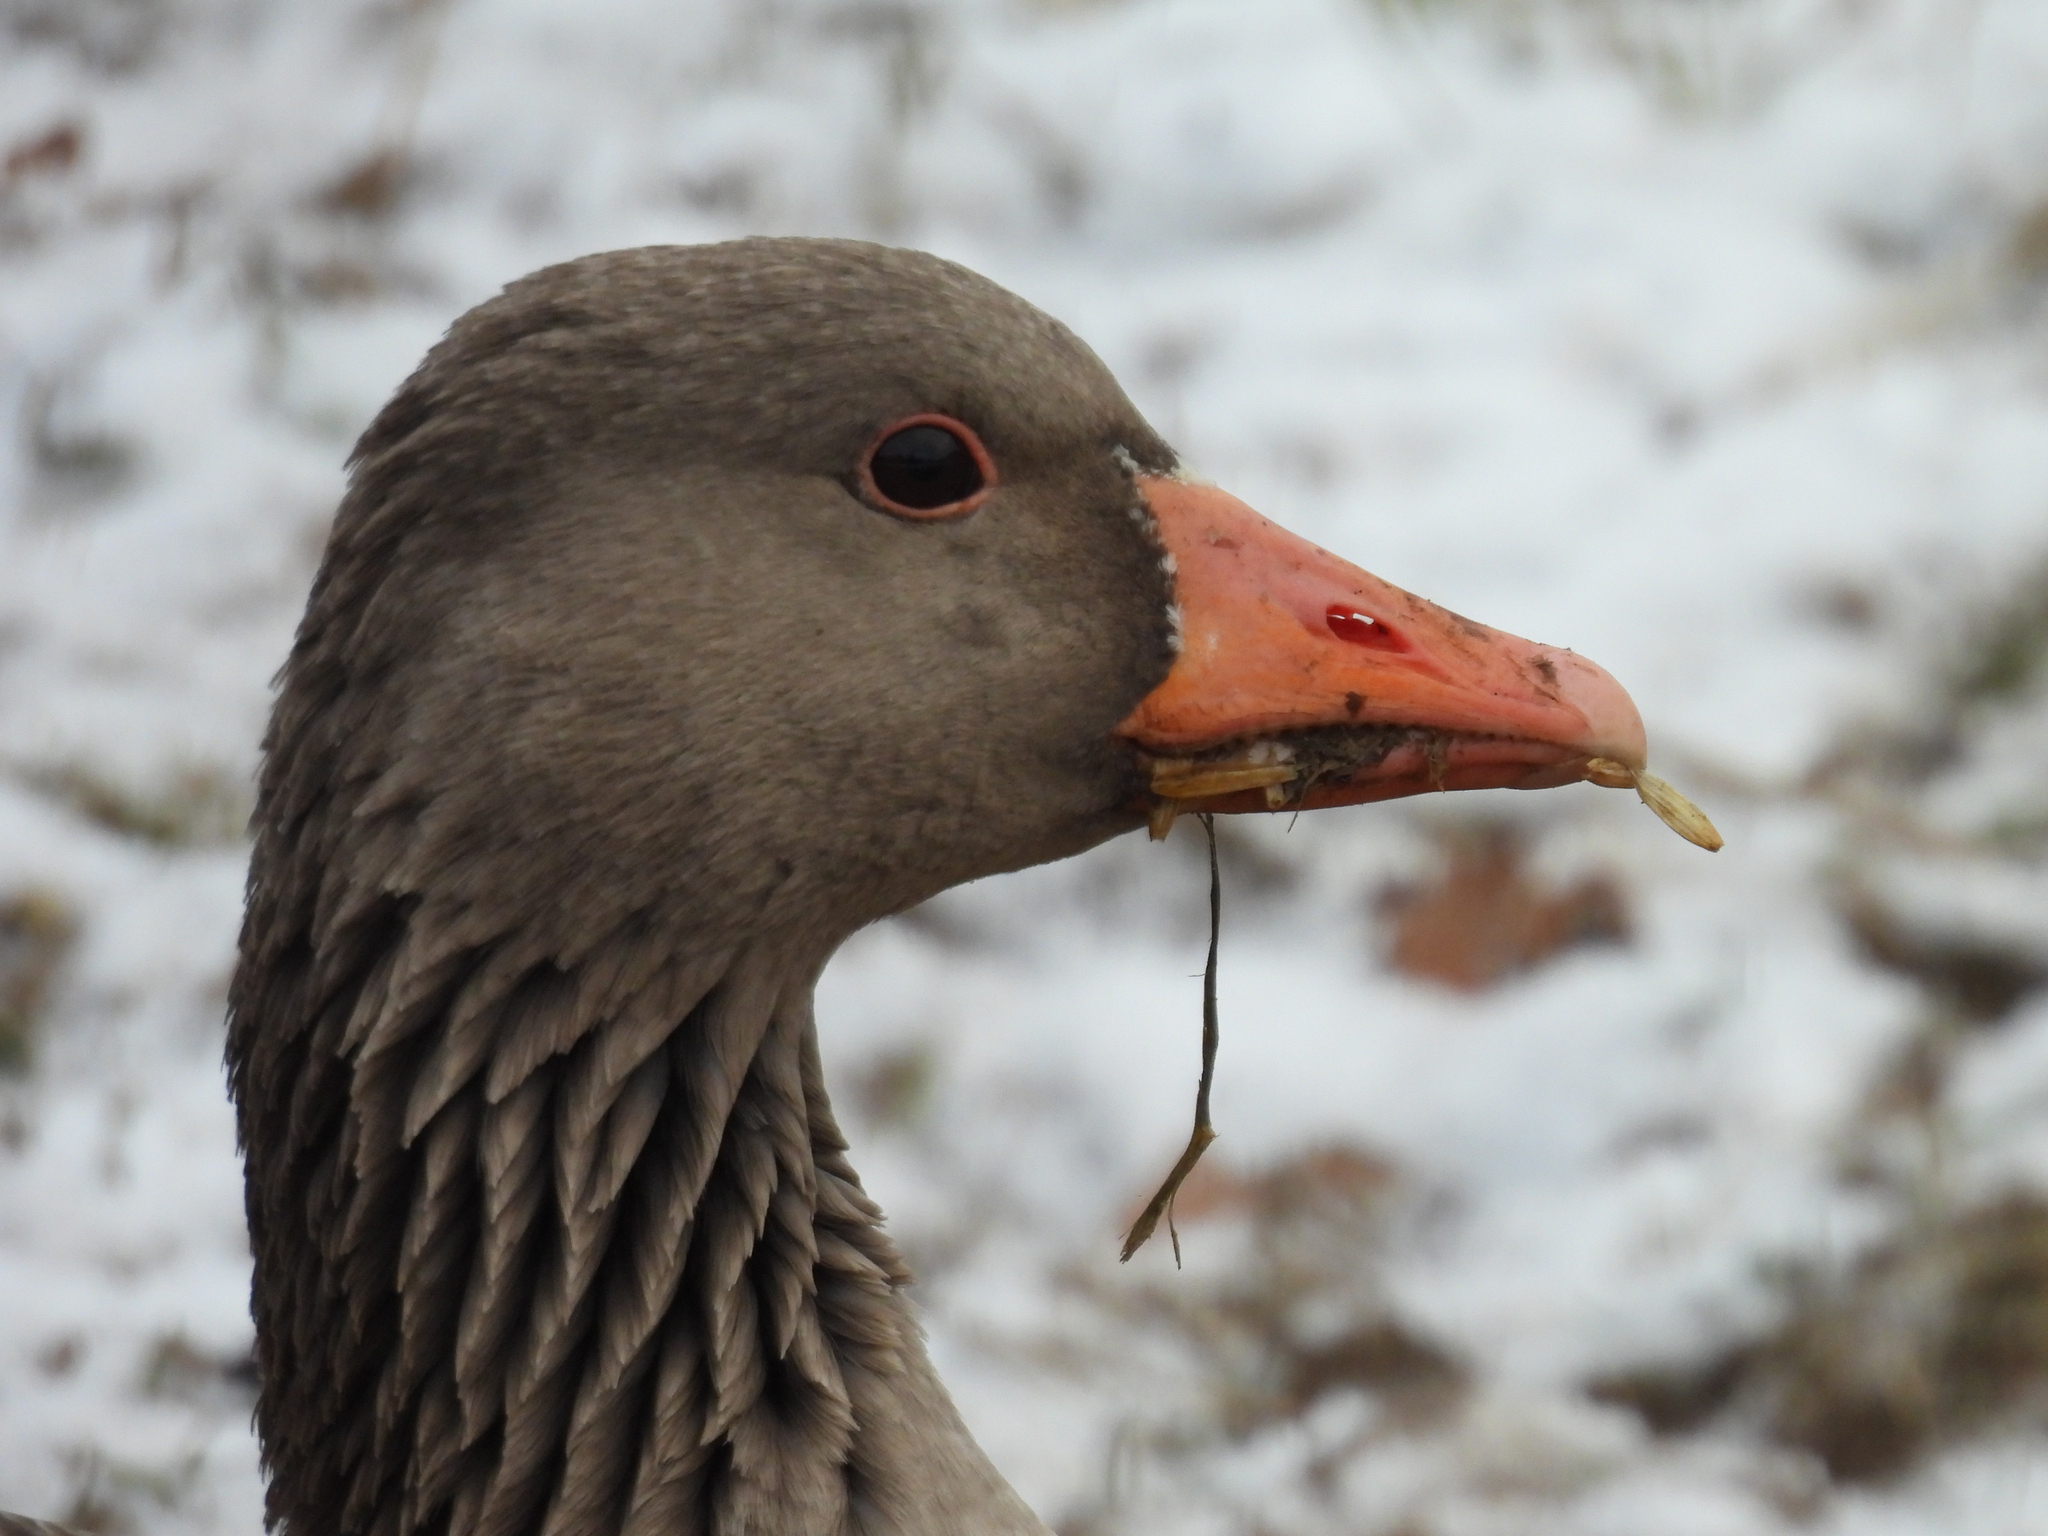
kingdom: Animalia
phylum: Chordata
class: Aves
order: Anseriformes
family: Anatidae
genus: Anser
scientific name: Anser anser
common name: Greylag goose
